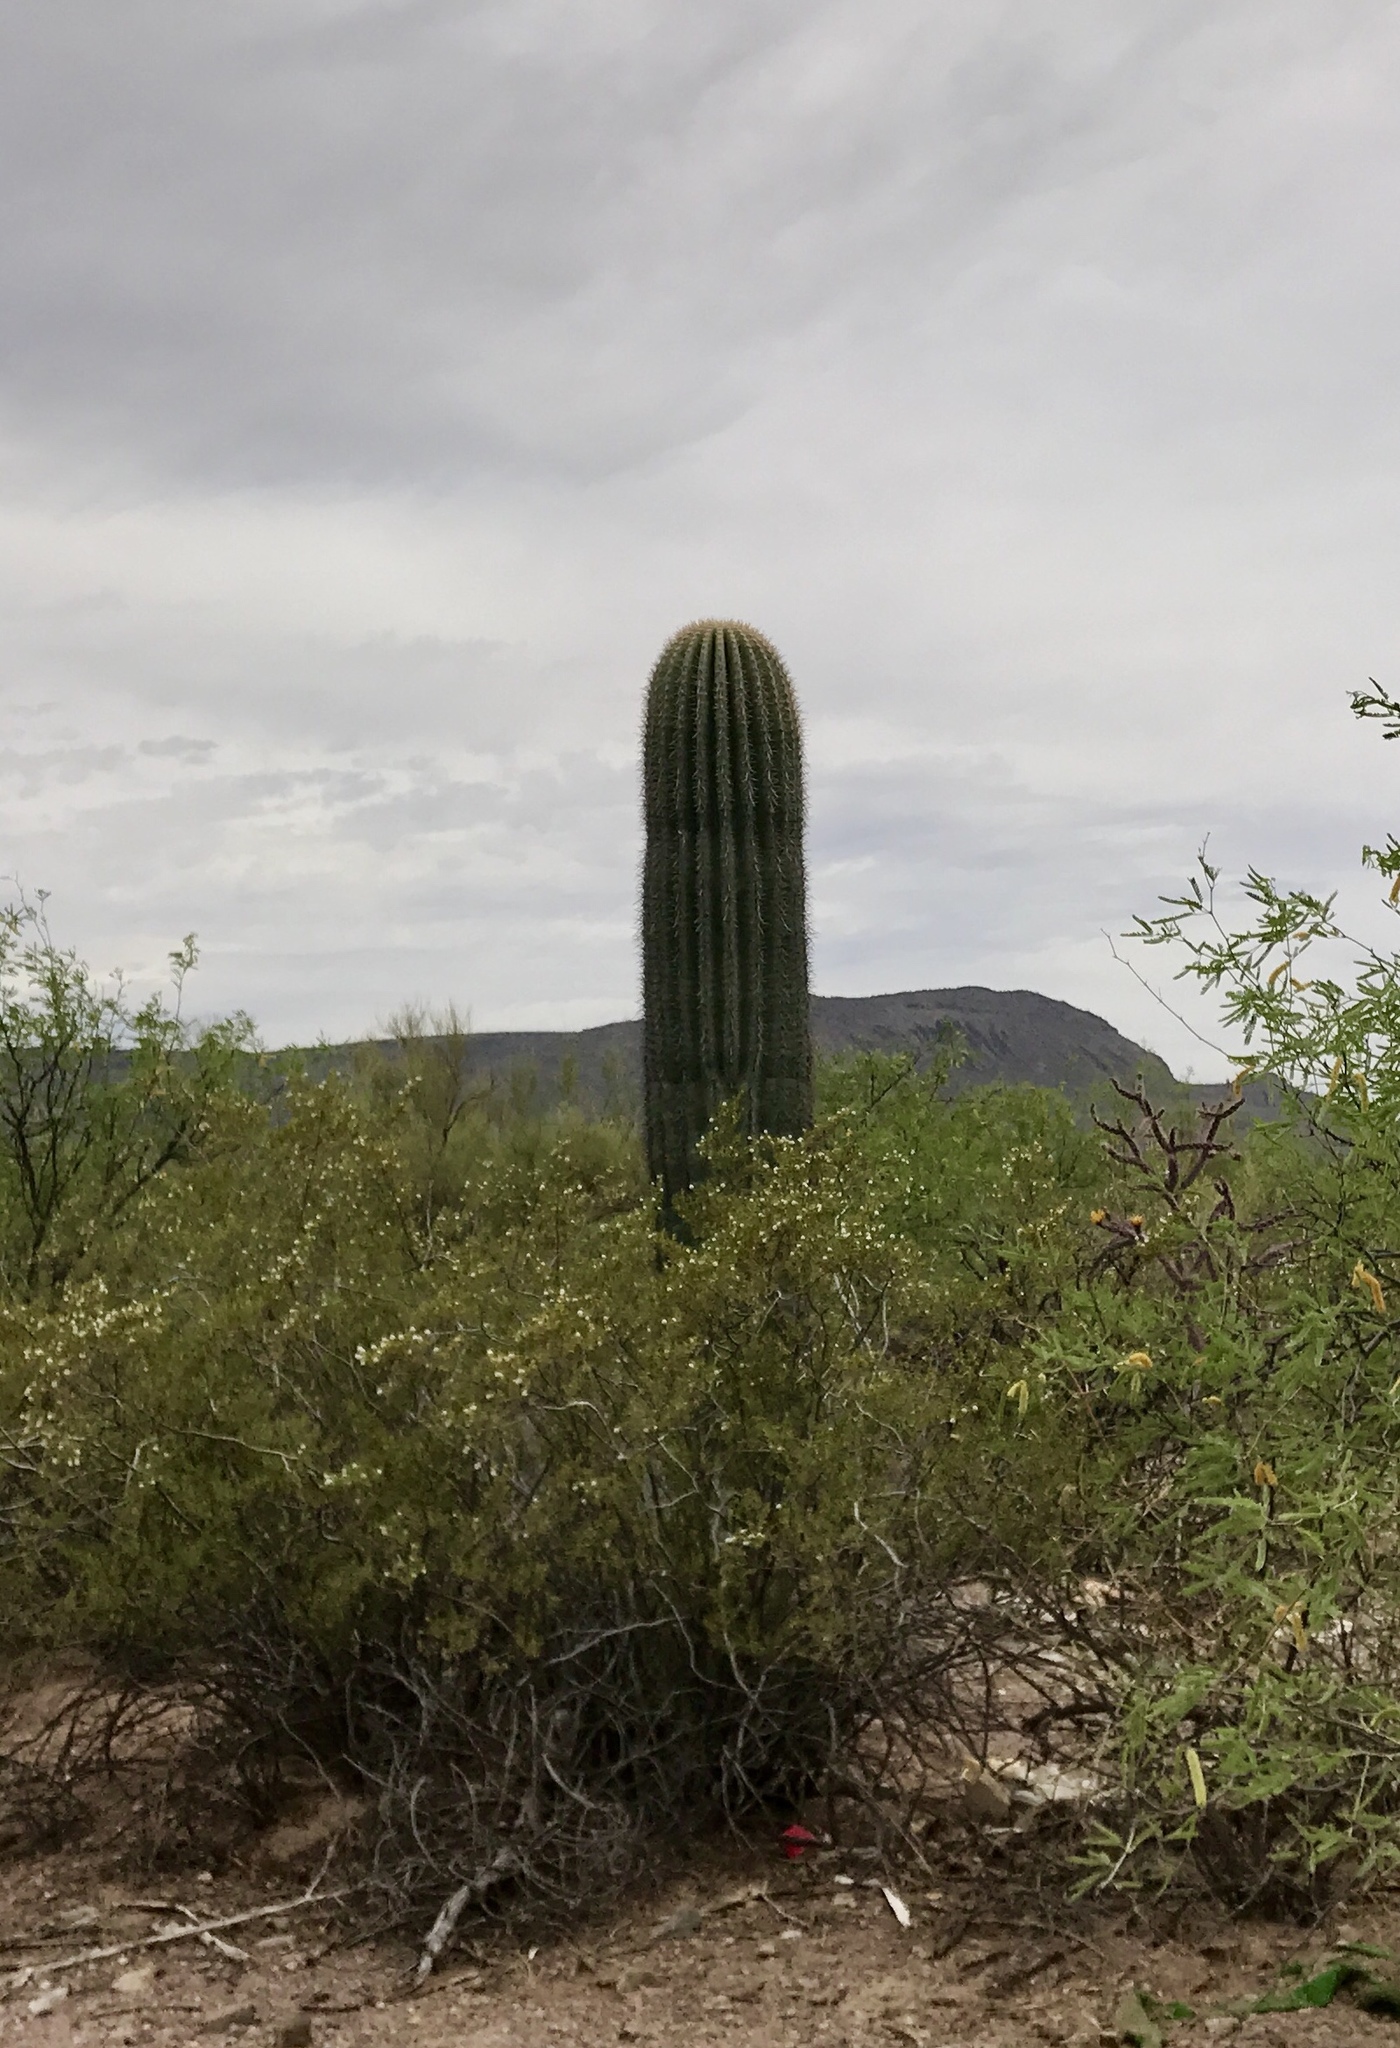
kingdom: Plantae
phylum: Tracheophyta
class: Magnoliopsida
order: Caryophyllales
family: Cactaceae
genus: Carnegiea
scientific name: Carnegiea gigantea
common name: Saguaro
